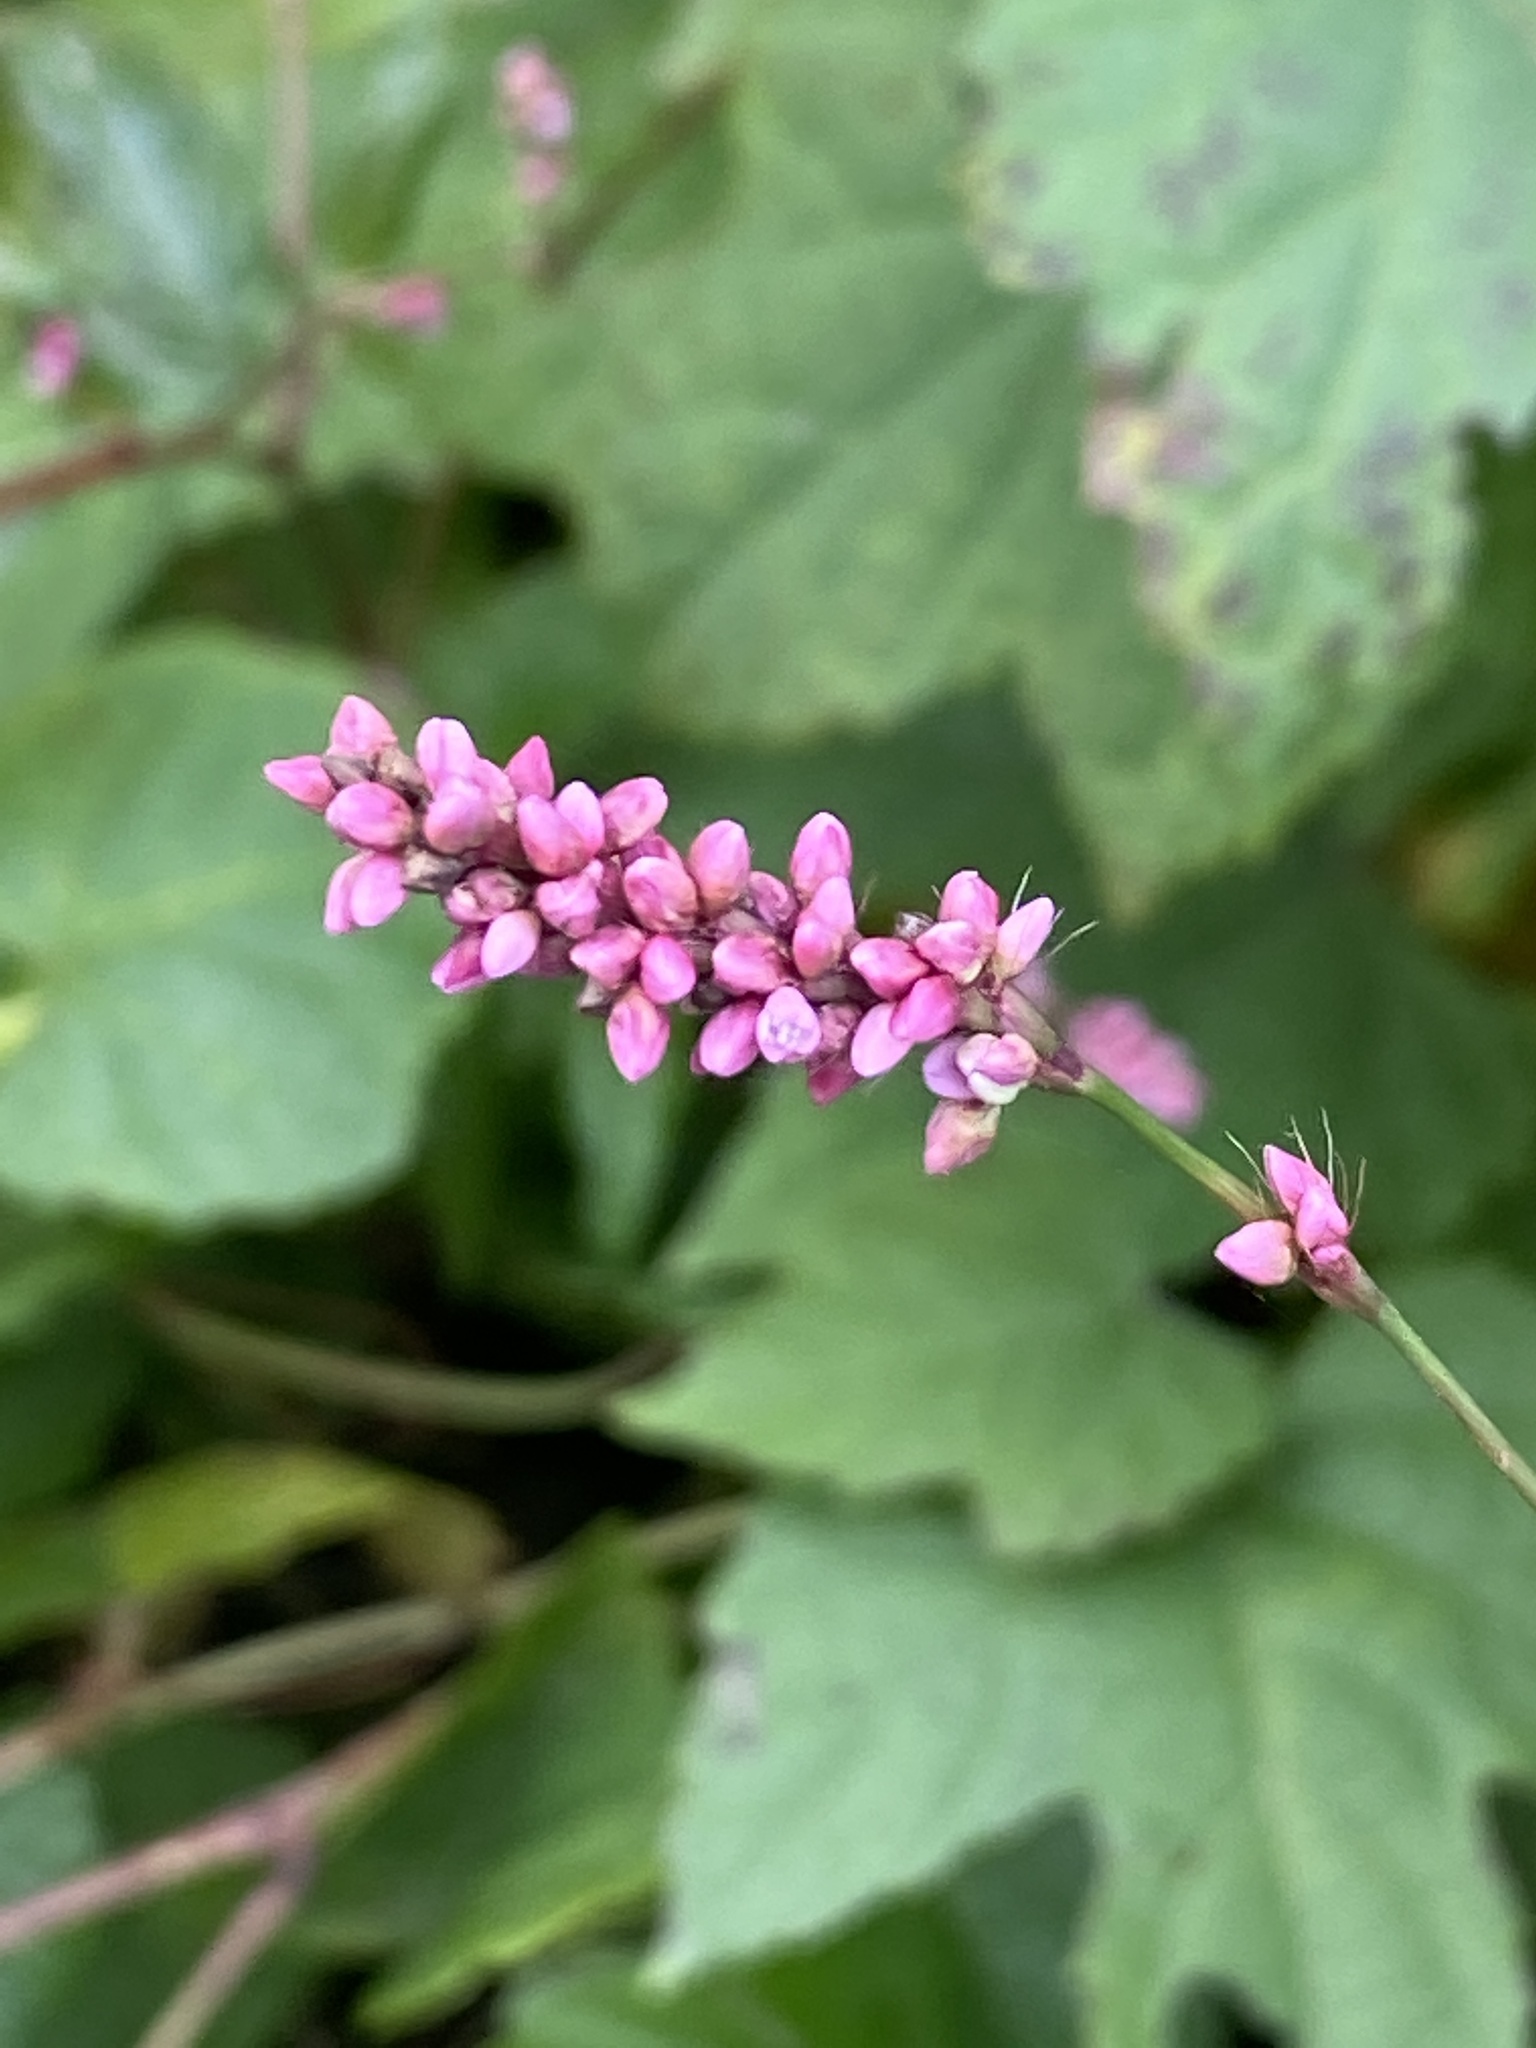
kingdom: Plantae
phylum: Tracheophyta
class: Magnoliopsida
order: Caryophyllales
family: Polygonaceae
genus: Persicaria
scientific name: Persicaria longiseta
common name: Bristly lady's-thumb
